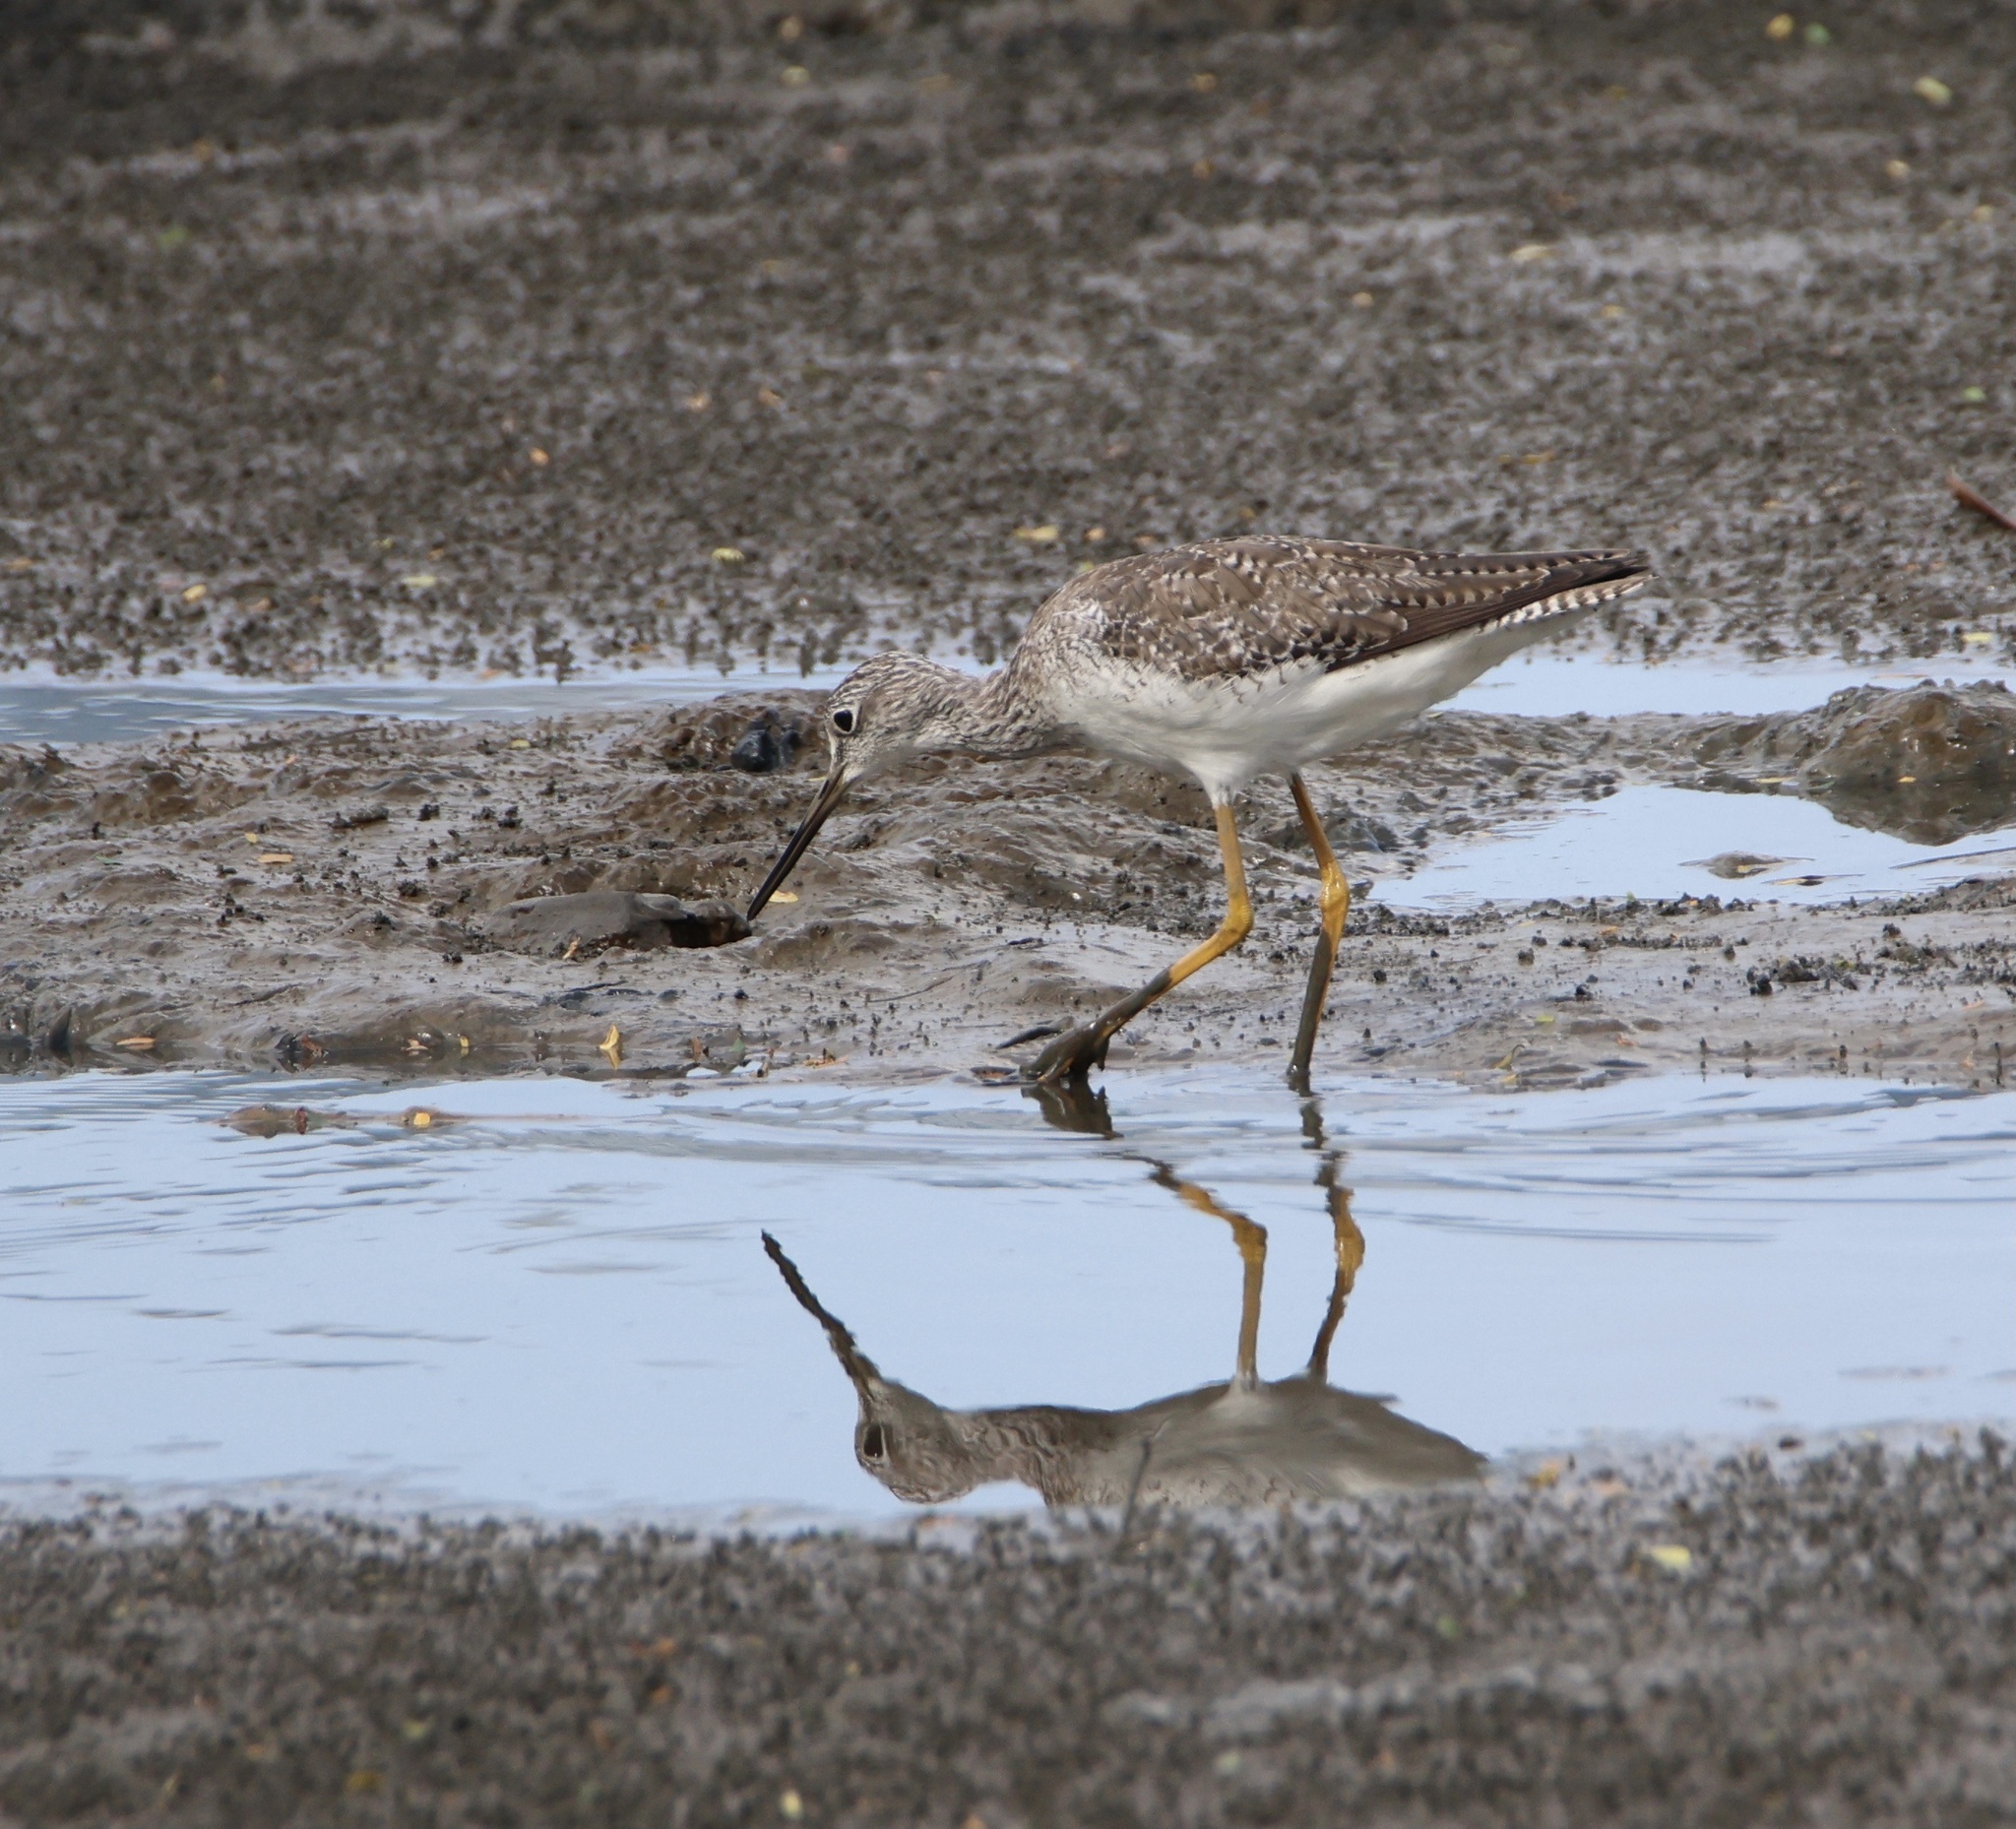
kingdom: Animalia
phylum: Chordata
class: Aves
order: Charadriiformes
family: Scolopacidae
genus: Tringa
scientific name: Tringa melanoleuca
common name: Greater yellowlegs
